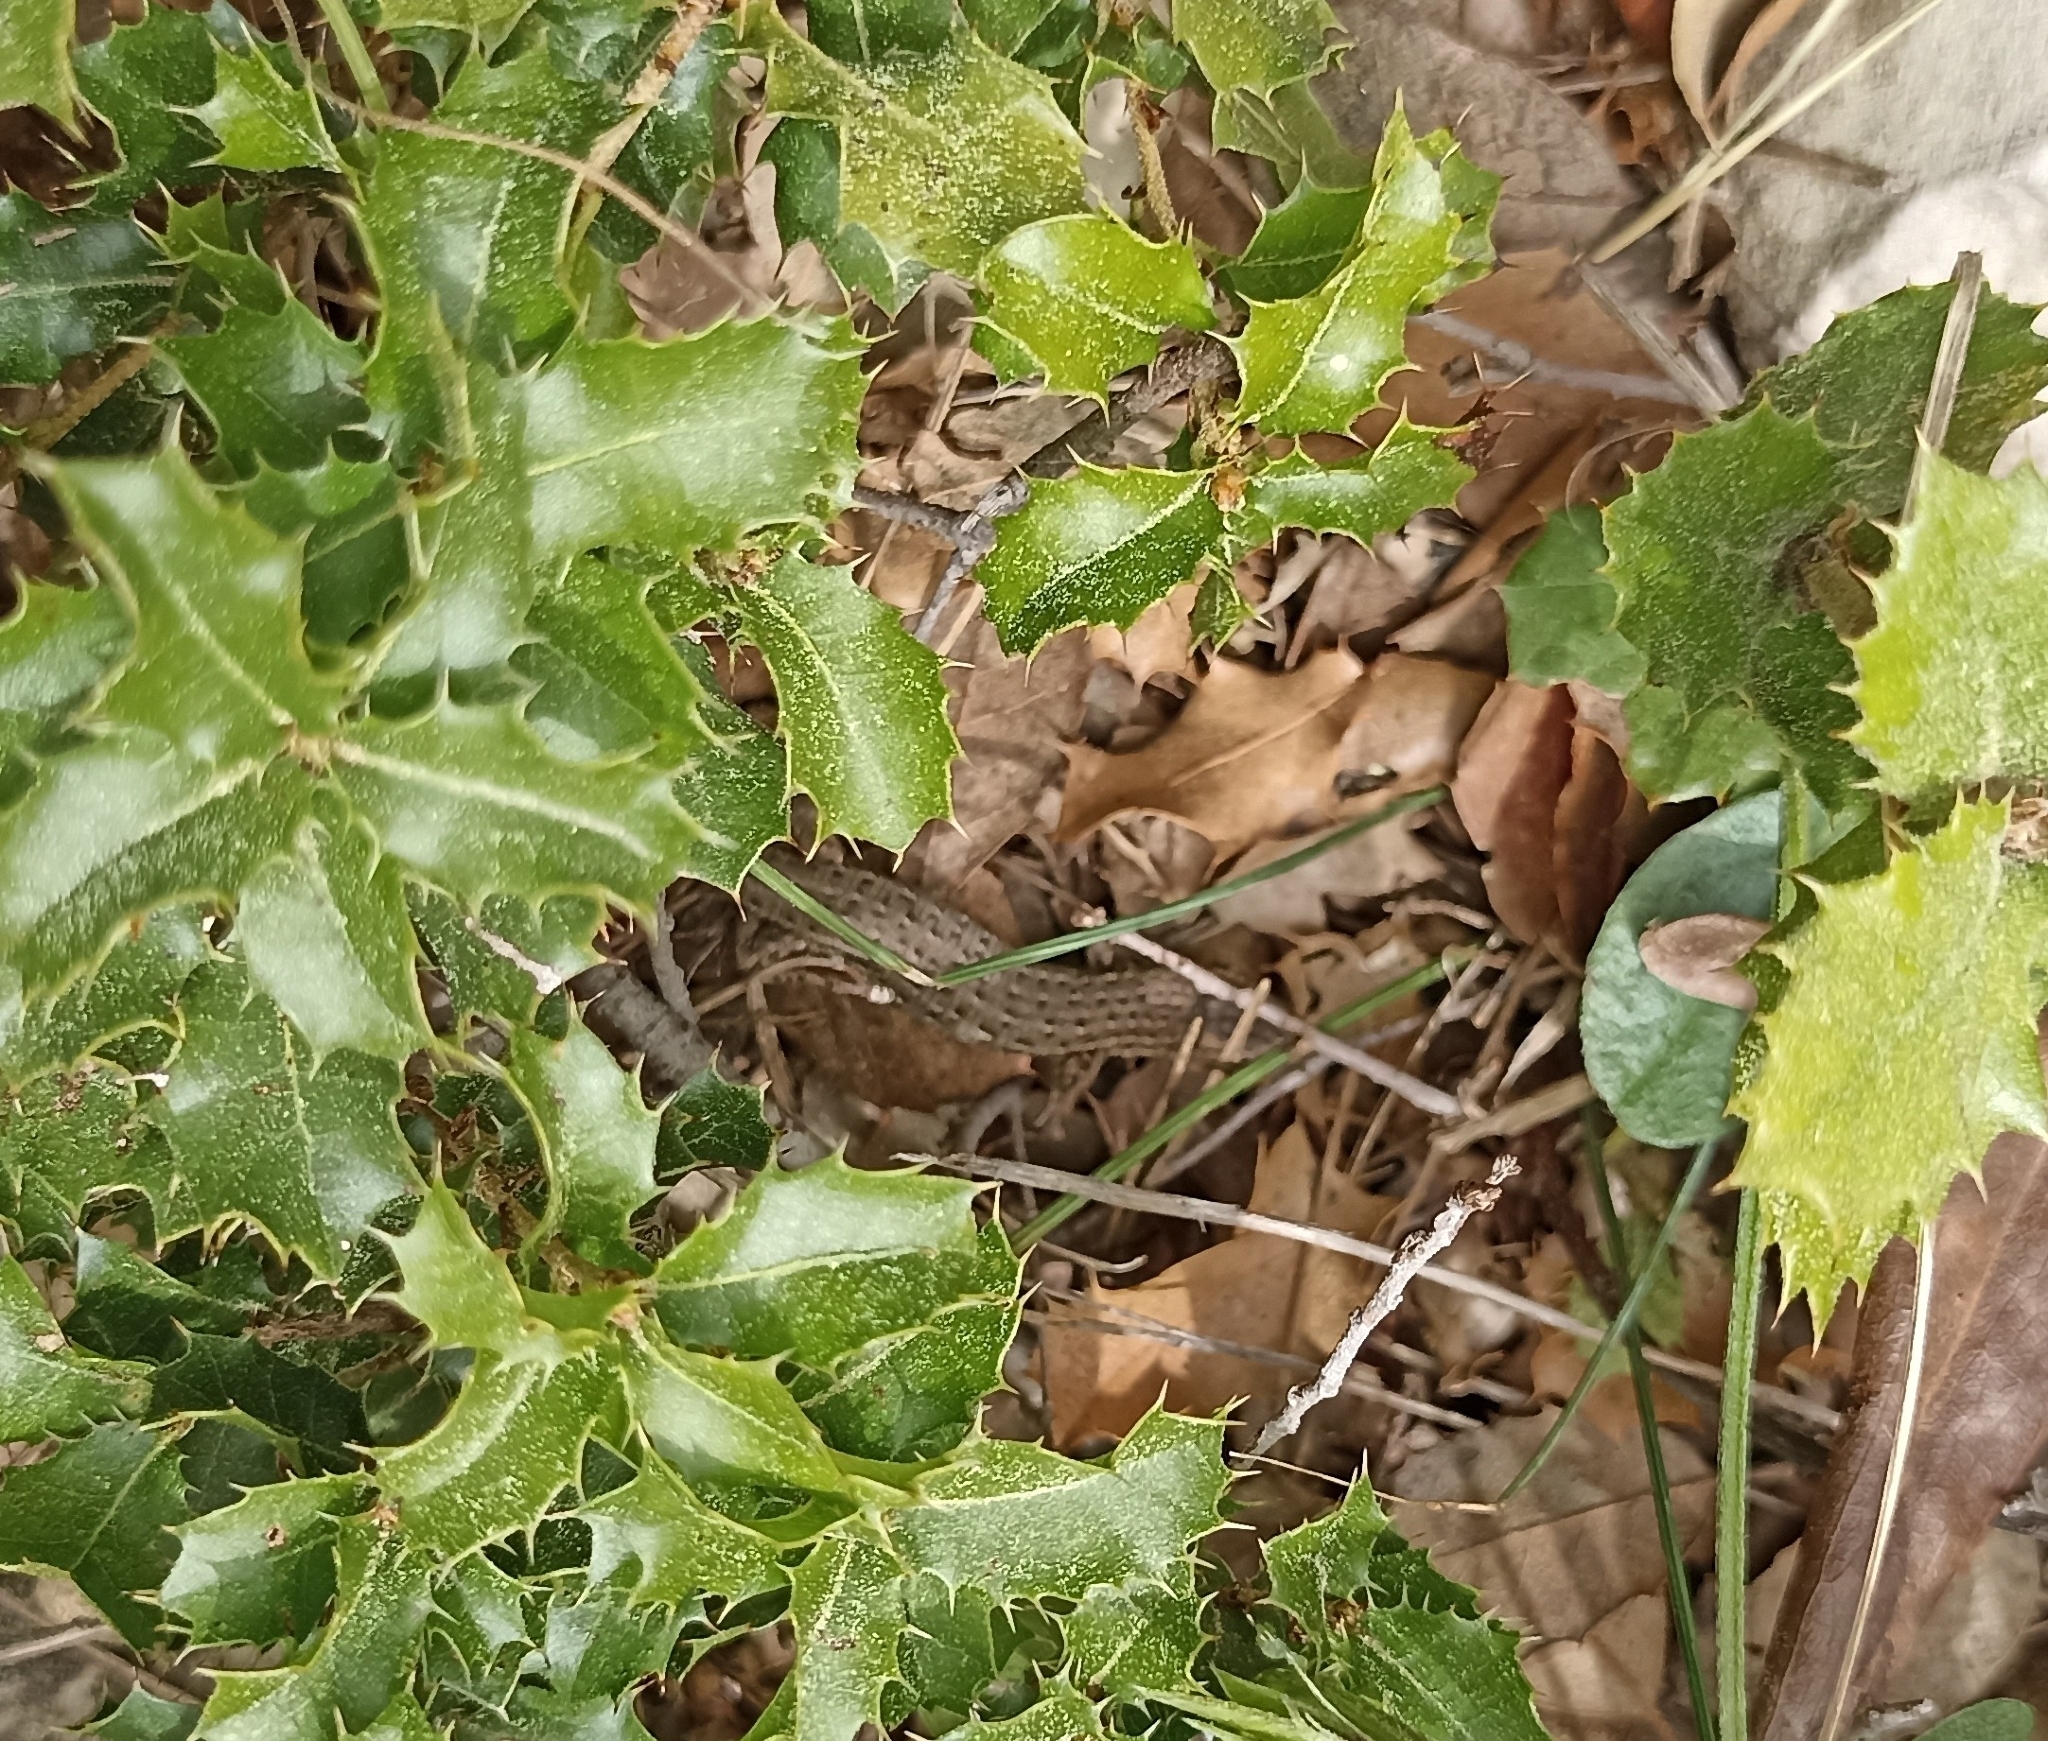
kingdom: Animalia
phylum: Chordata
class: Squamata
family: Lacertidae
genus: Psammodromus
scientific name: Psammodromus edwarsianus
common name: East iberian psammodromus
